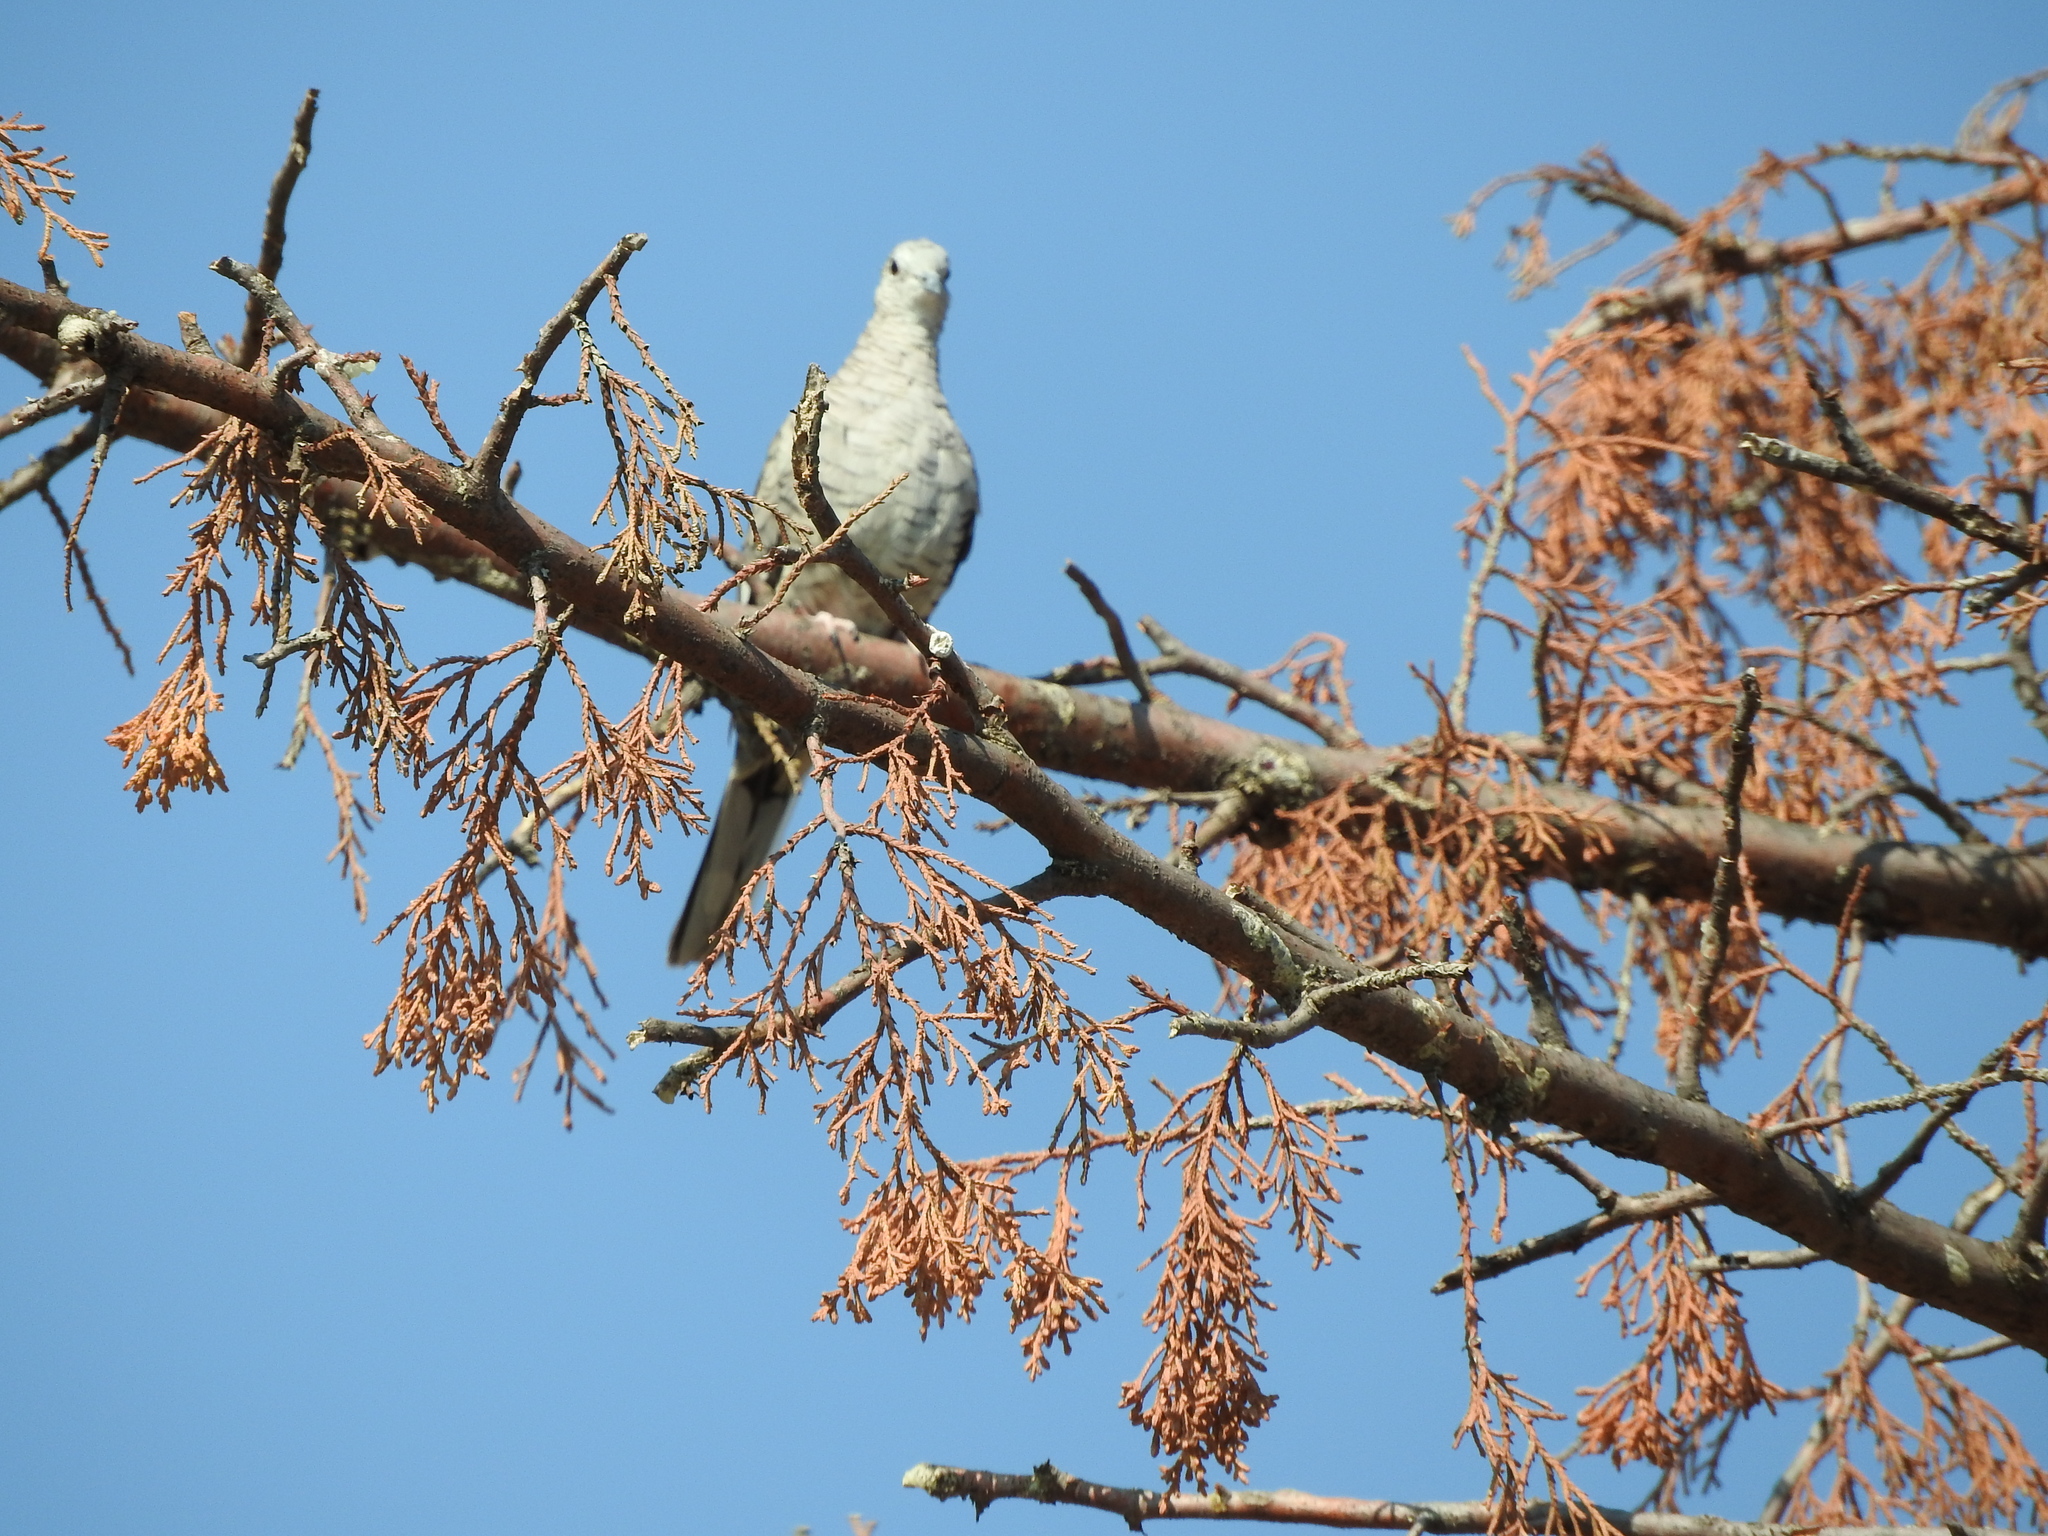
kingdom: Animalia
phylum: Chordata
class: Aves
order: Columbiformes
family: Columbidae
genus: Columbina
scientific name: Columbina inca
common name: Inca dove
